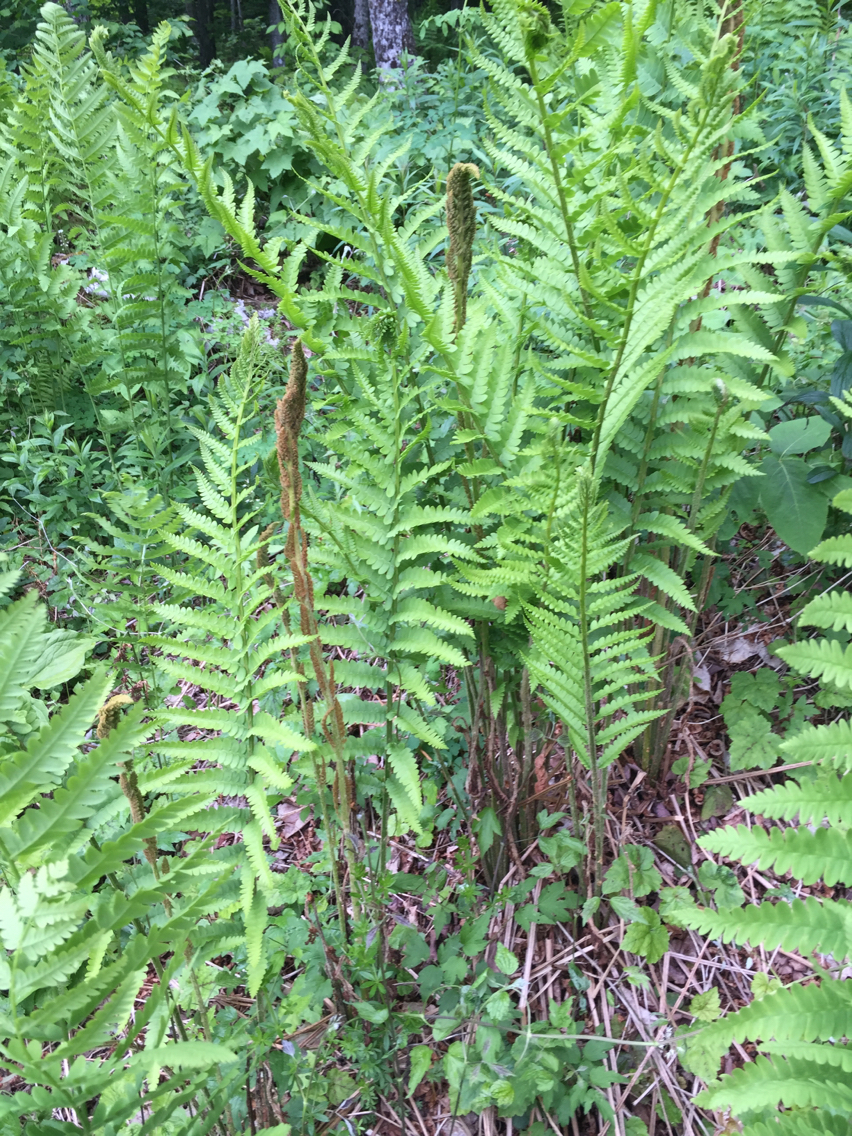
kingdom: Plantae
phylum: Tracheophyta
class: Polypodiopsida
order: Osmundales
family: Osmundaceae
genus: Osmundastrum
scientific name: Osmundastrum cinnamomeum
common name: Cinnamon fern
